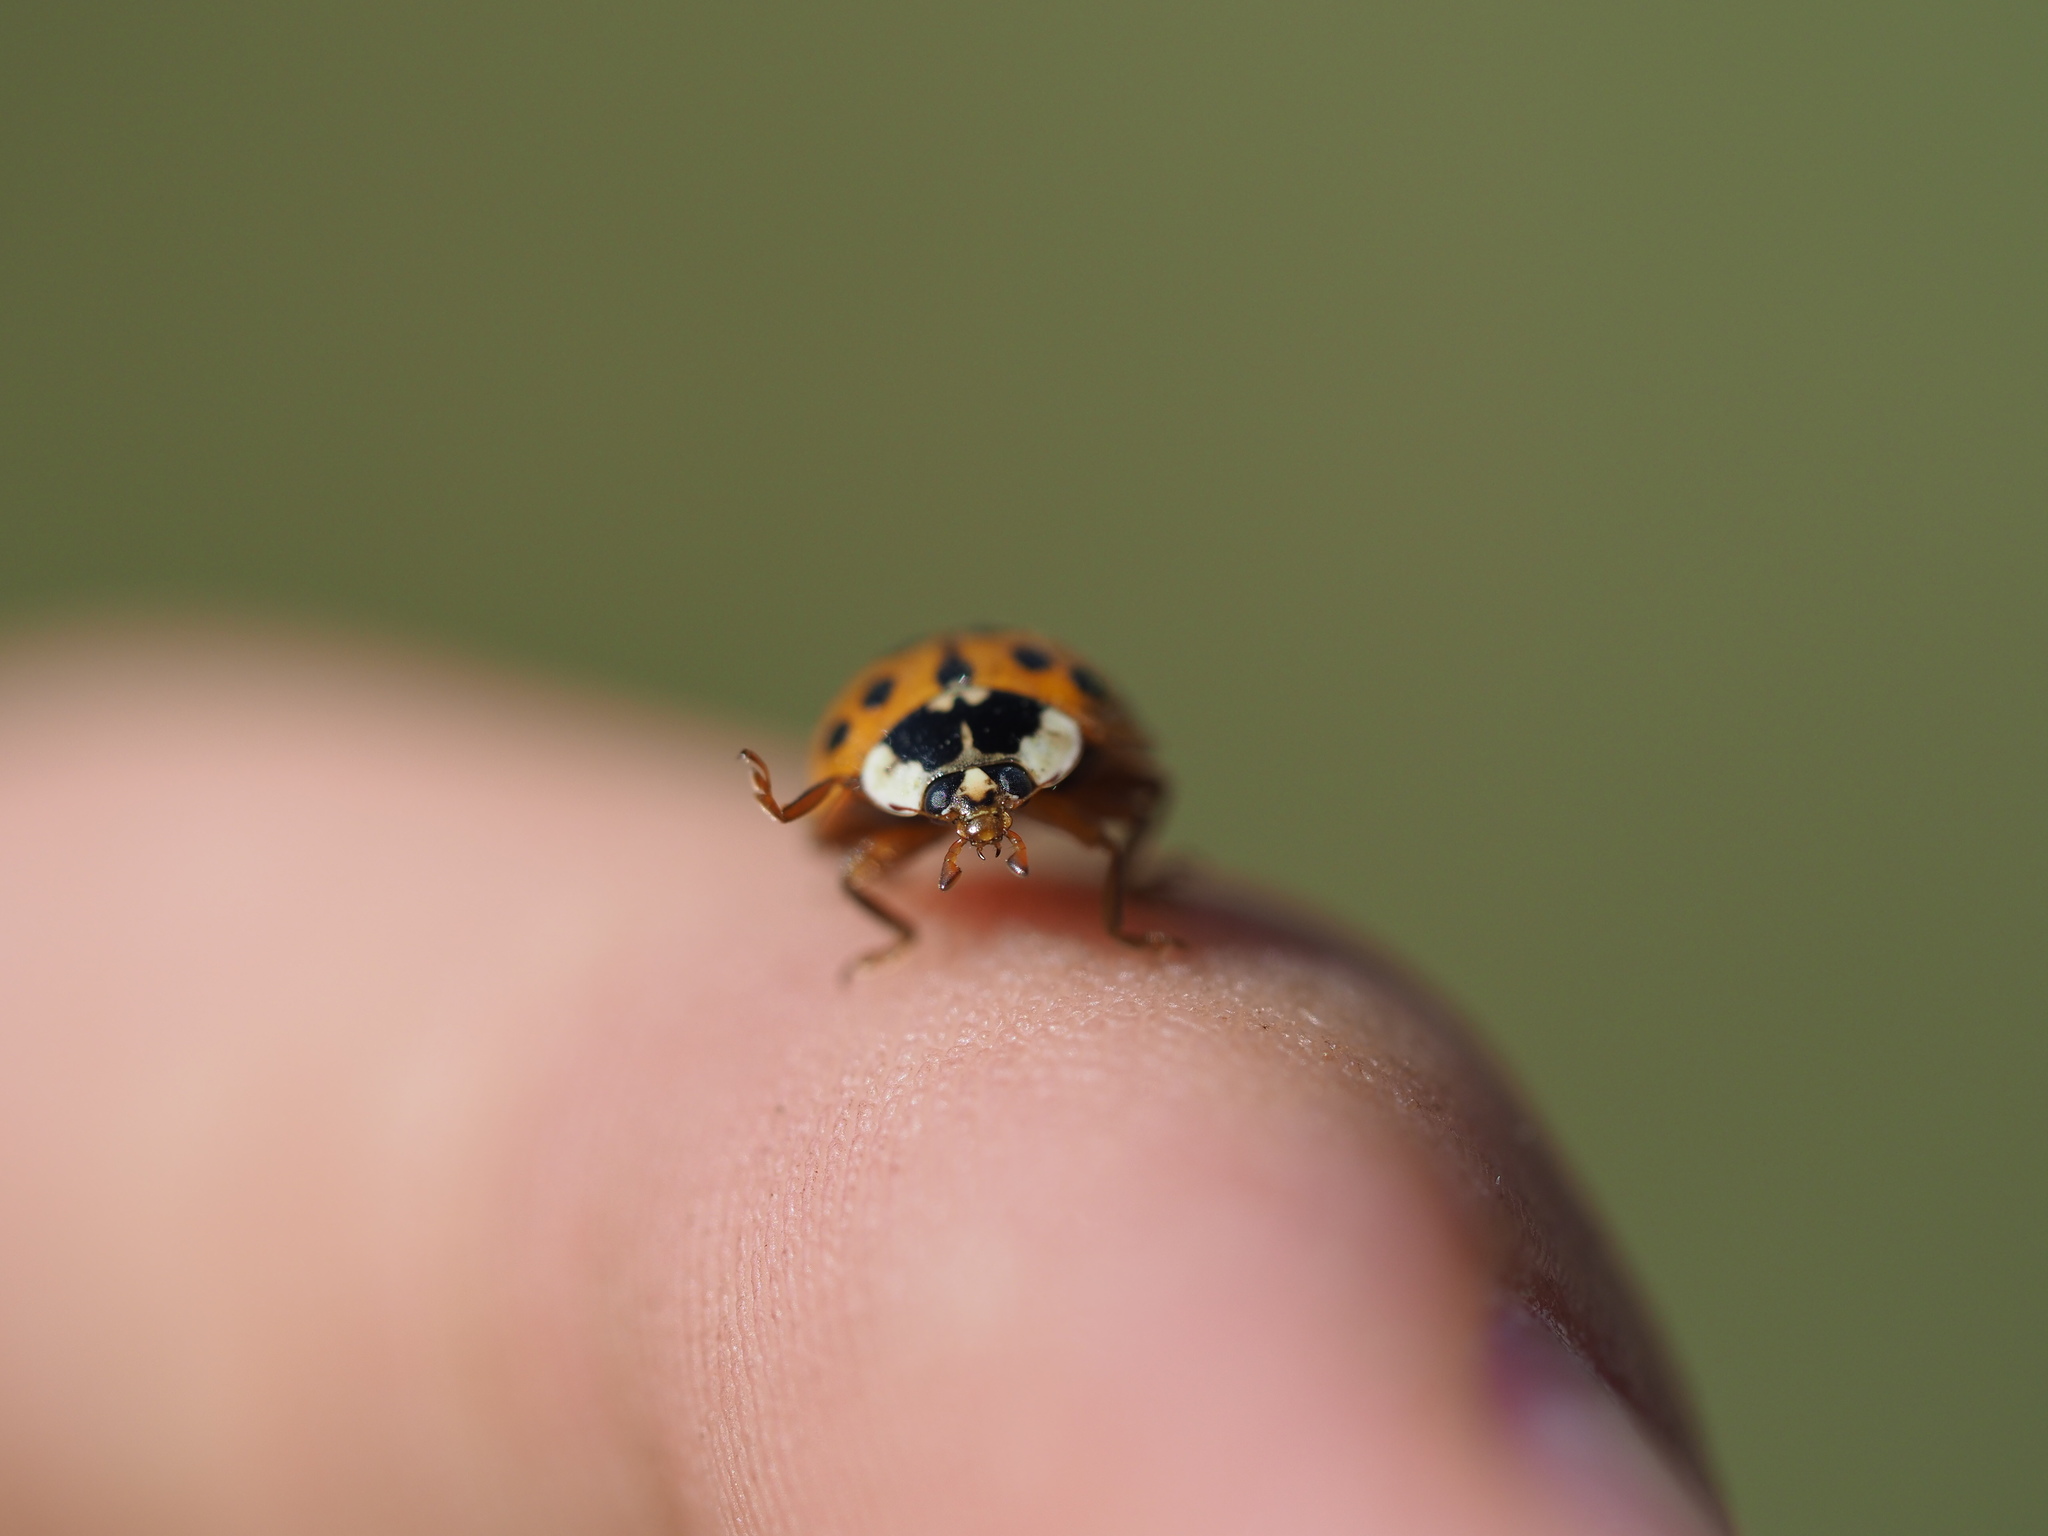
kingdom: Animalia
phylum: Arthropoda
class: Insecta
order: Coleoptera
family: Coccinellidae
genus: Harmonia
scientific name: Harmonia axyridis
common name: Harlequin ladybird
